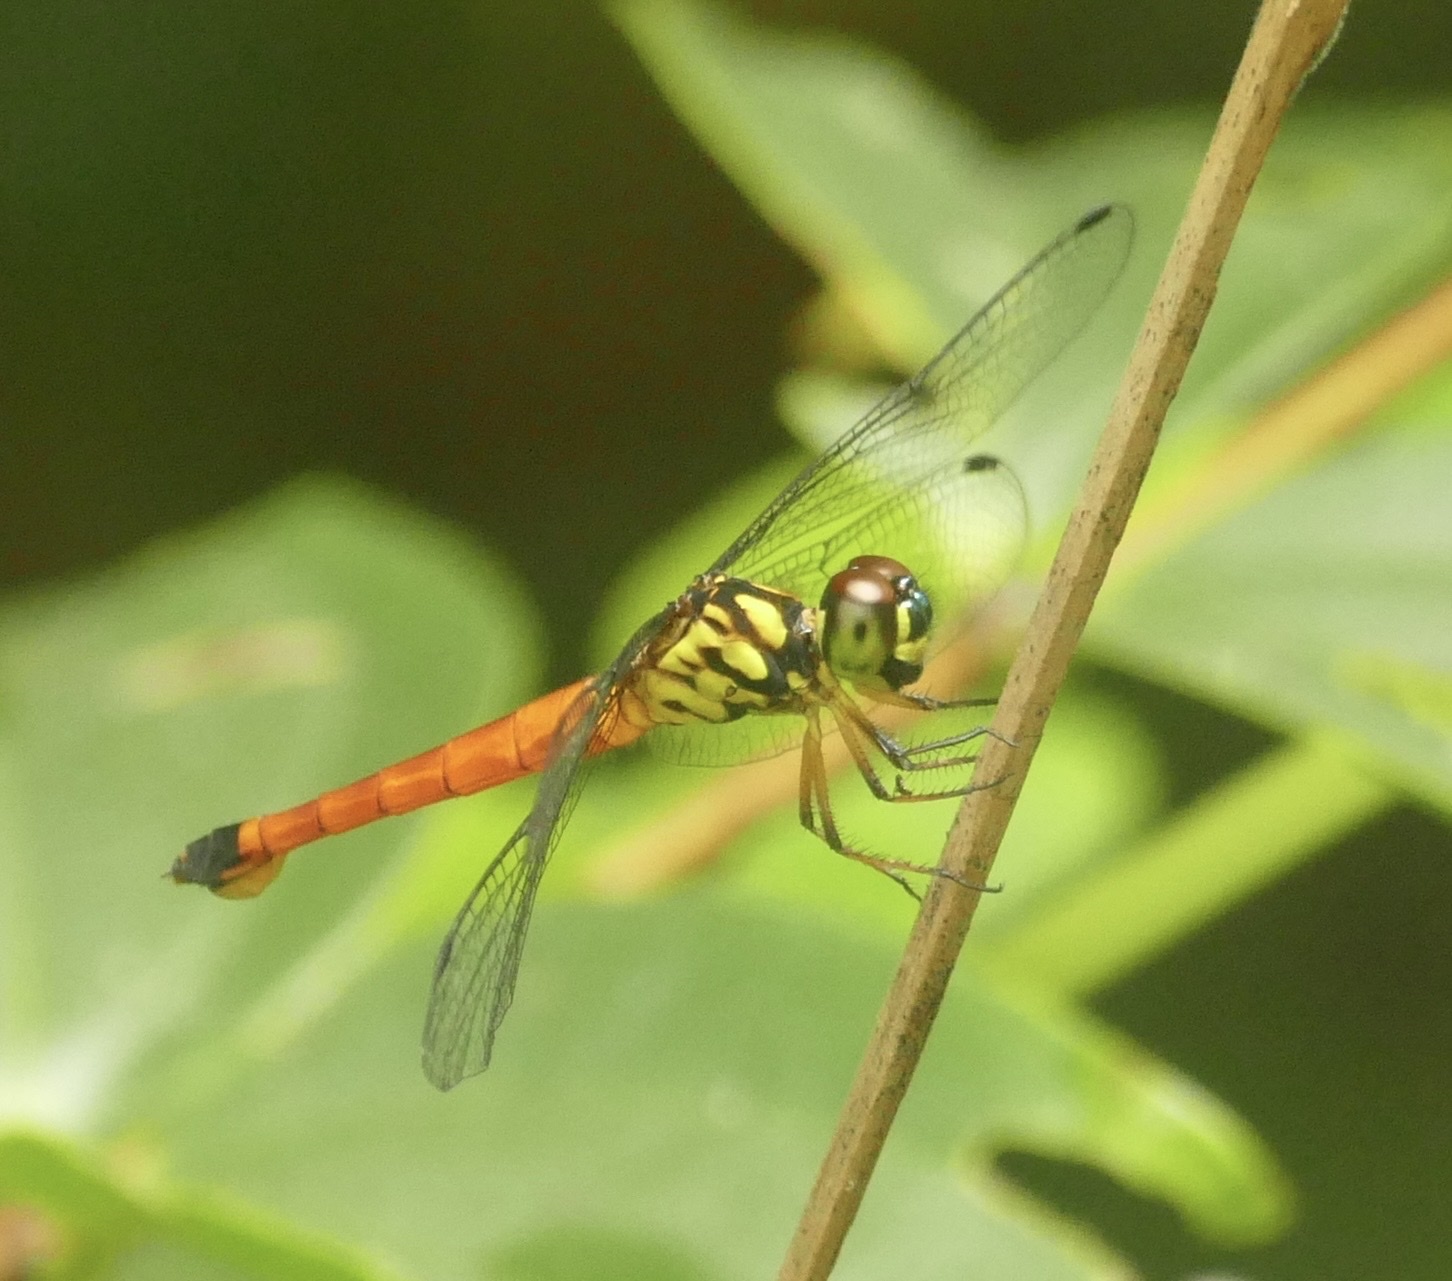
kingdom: Animalia
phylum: Arthropoda
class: Insecta
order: Odonata
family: Libellulidae
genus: Lyriothemis
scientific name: Lyriothemis meyeri
